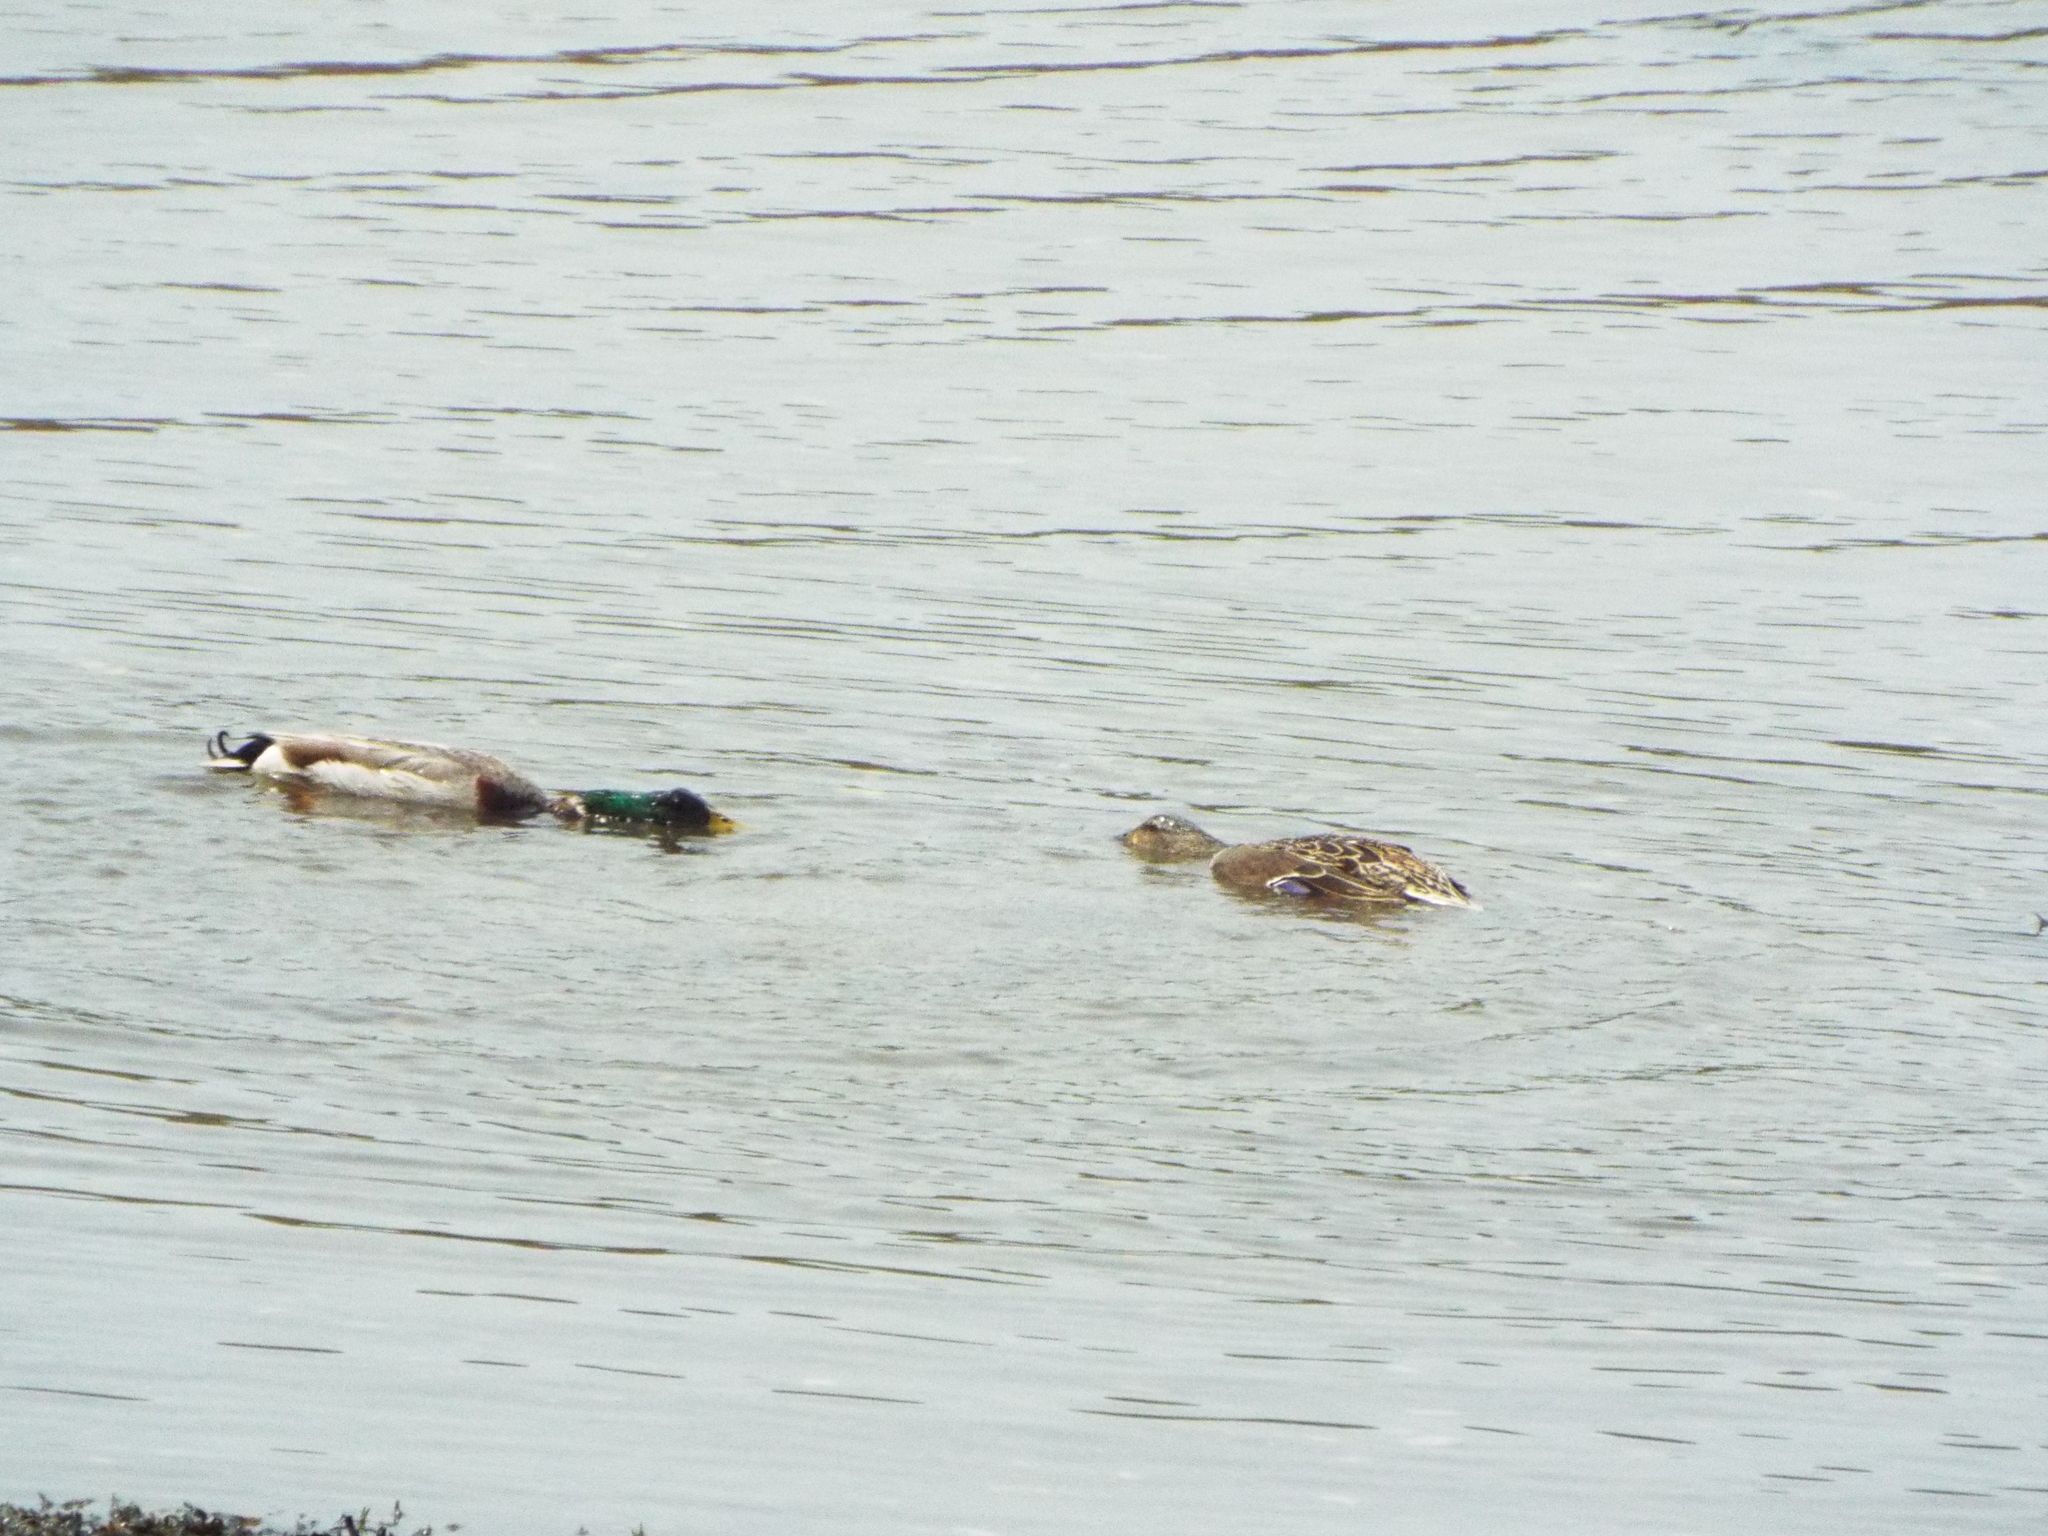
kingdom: Animalia
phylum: Chordata
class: Aves
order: Anseriformes
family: Anatidae
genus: Anas
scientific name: Anas platyrhynchos
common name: Mallard
